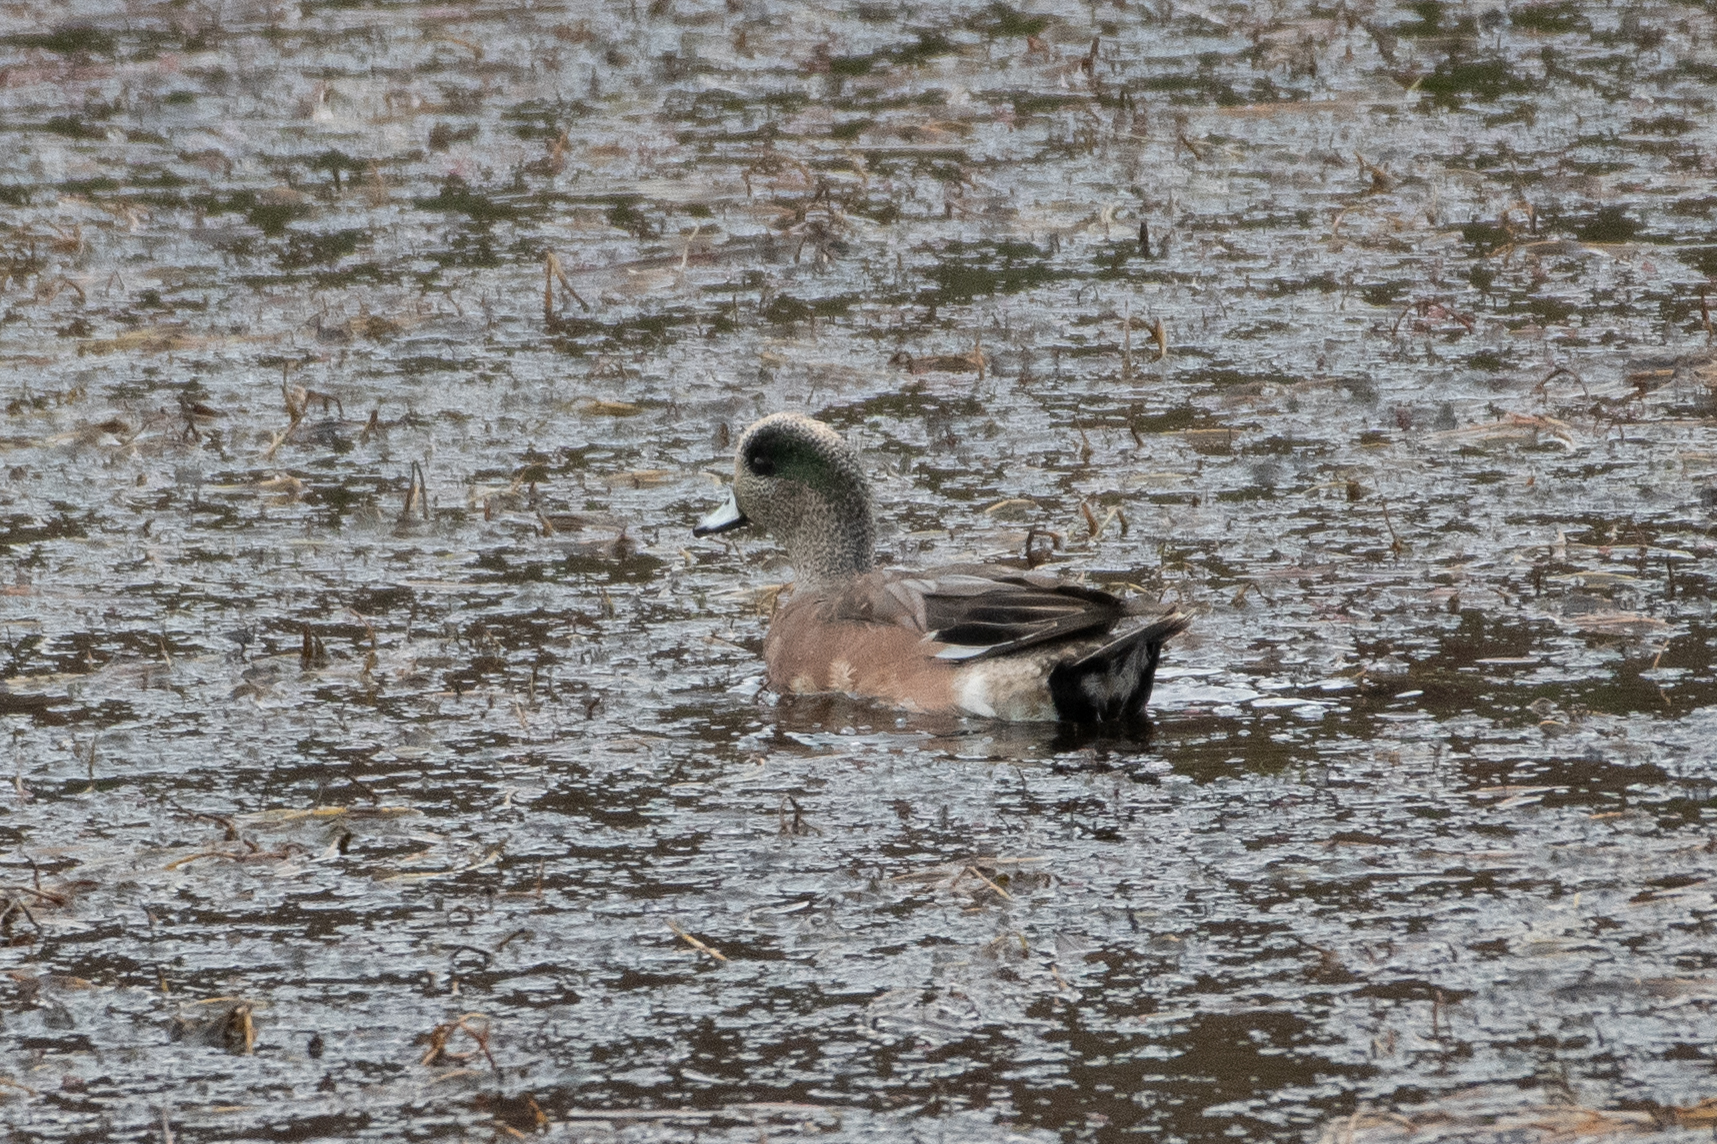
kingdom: Animalia
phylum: Chordata
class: Aves
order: Anseriformes
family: Anatidae
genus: Mareca
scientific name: Mareca americana
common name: American wigeon
